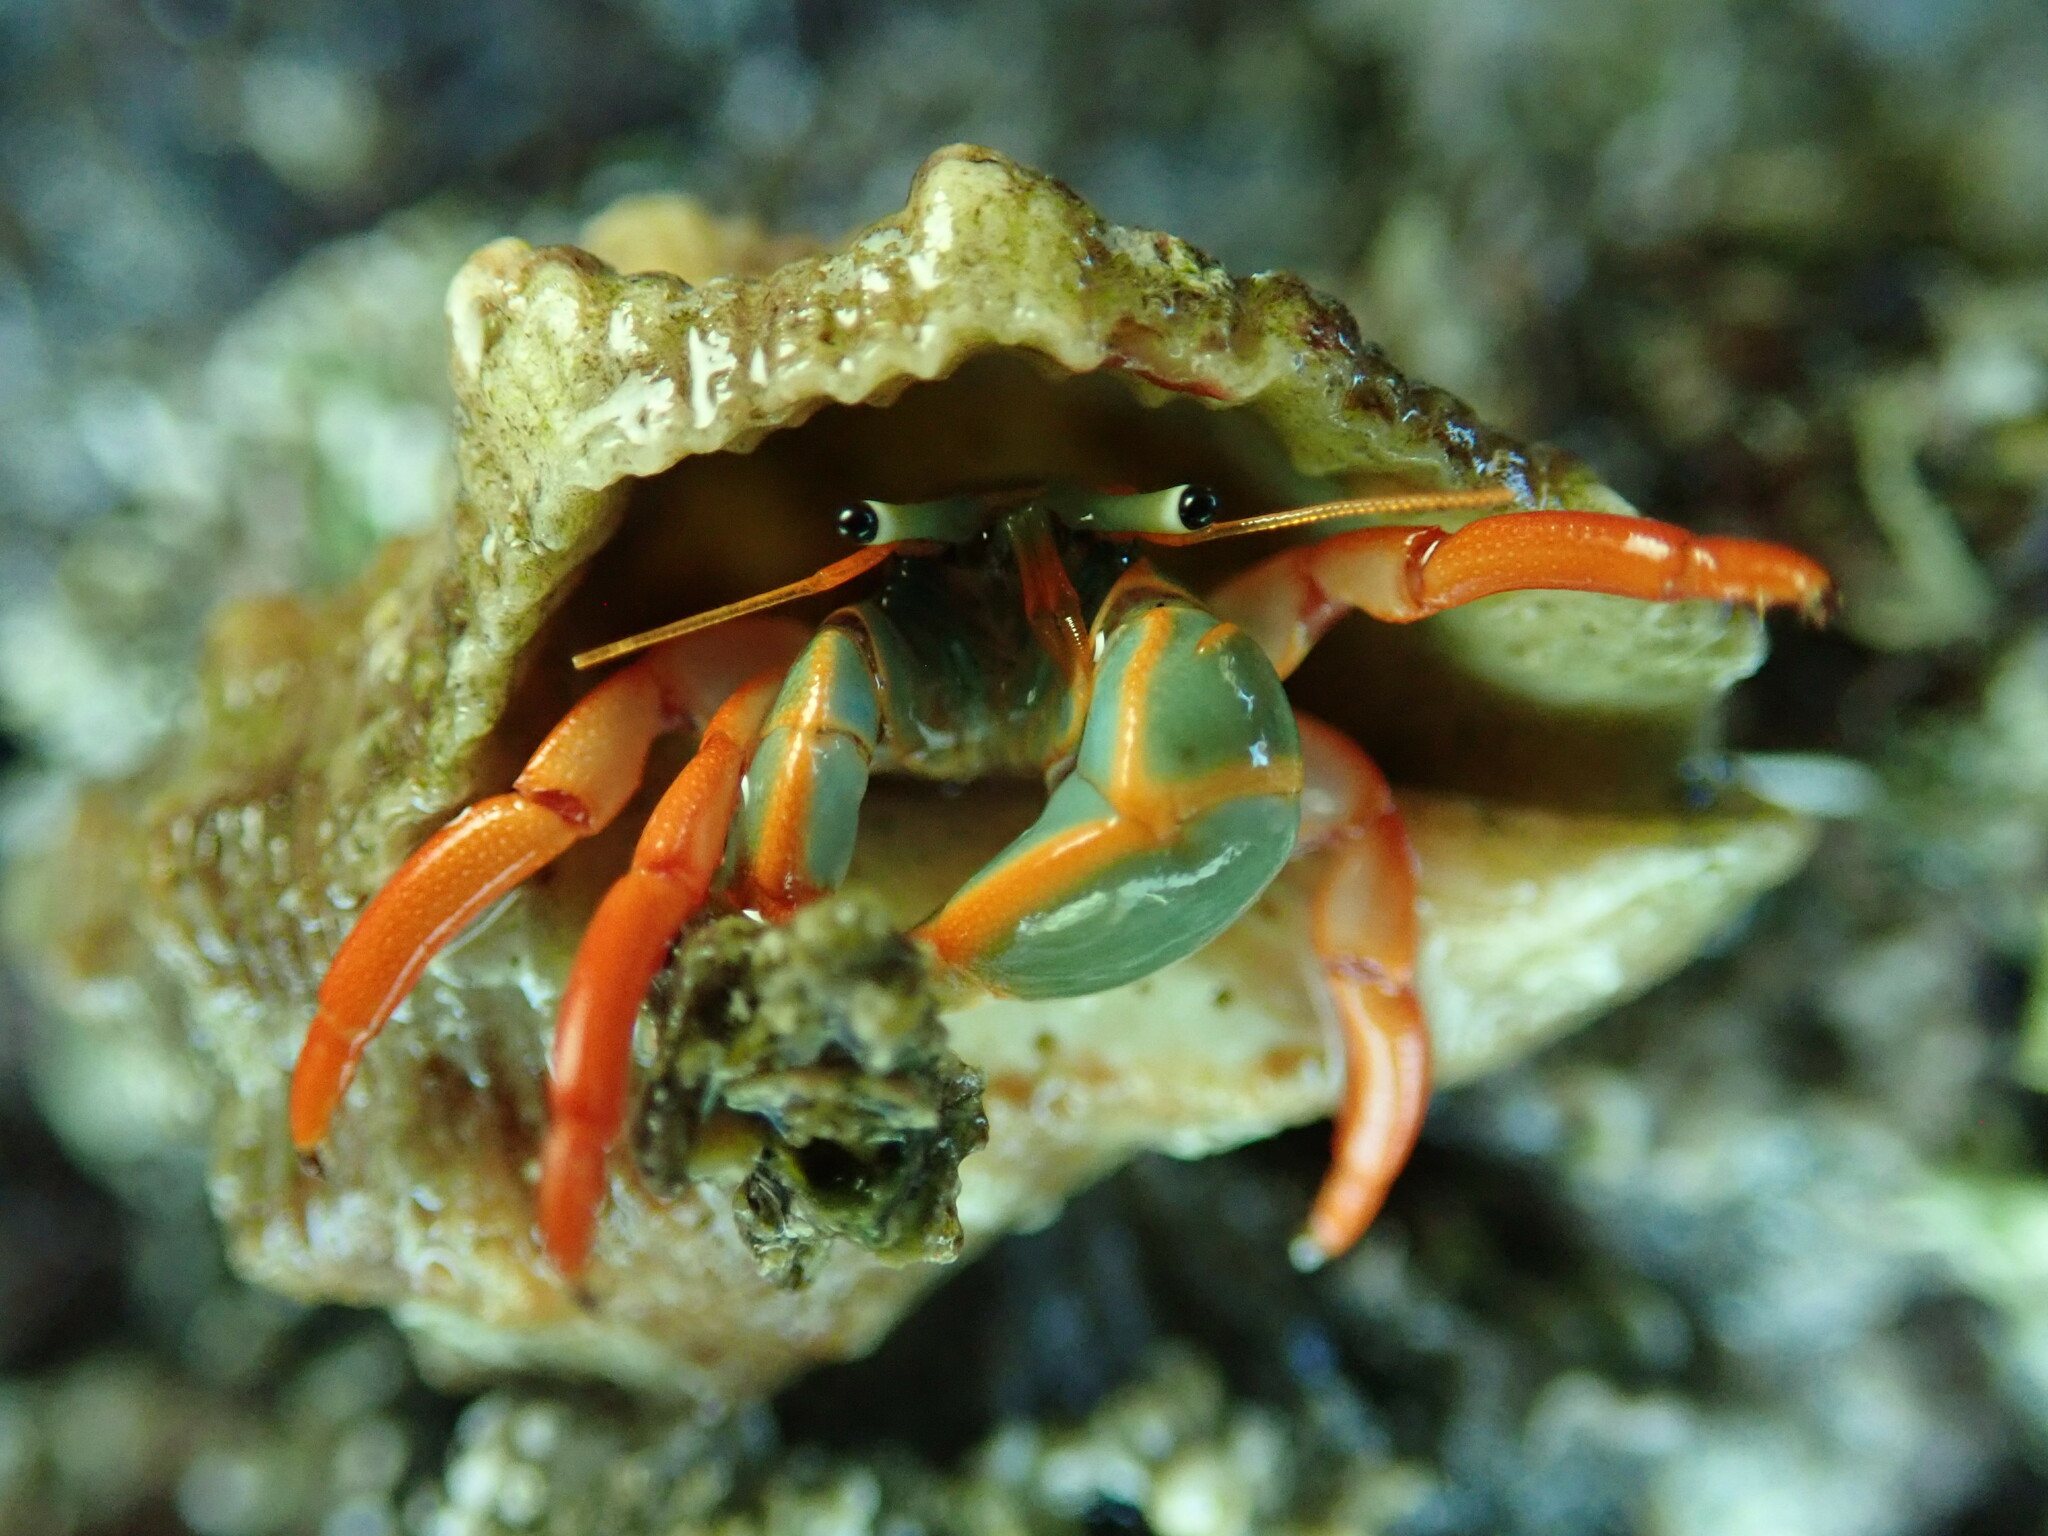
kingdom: Animalia
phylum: Arthropoda
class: Malacostraca
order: Decapoda
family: Diogenidae
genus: Calcinus
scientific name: Calcinus californiensis
